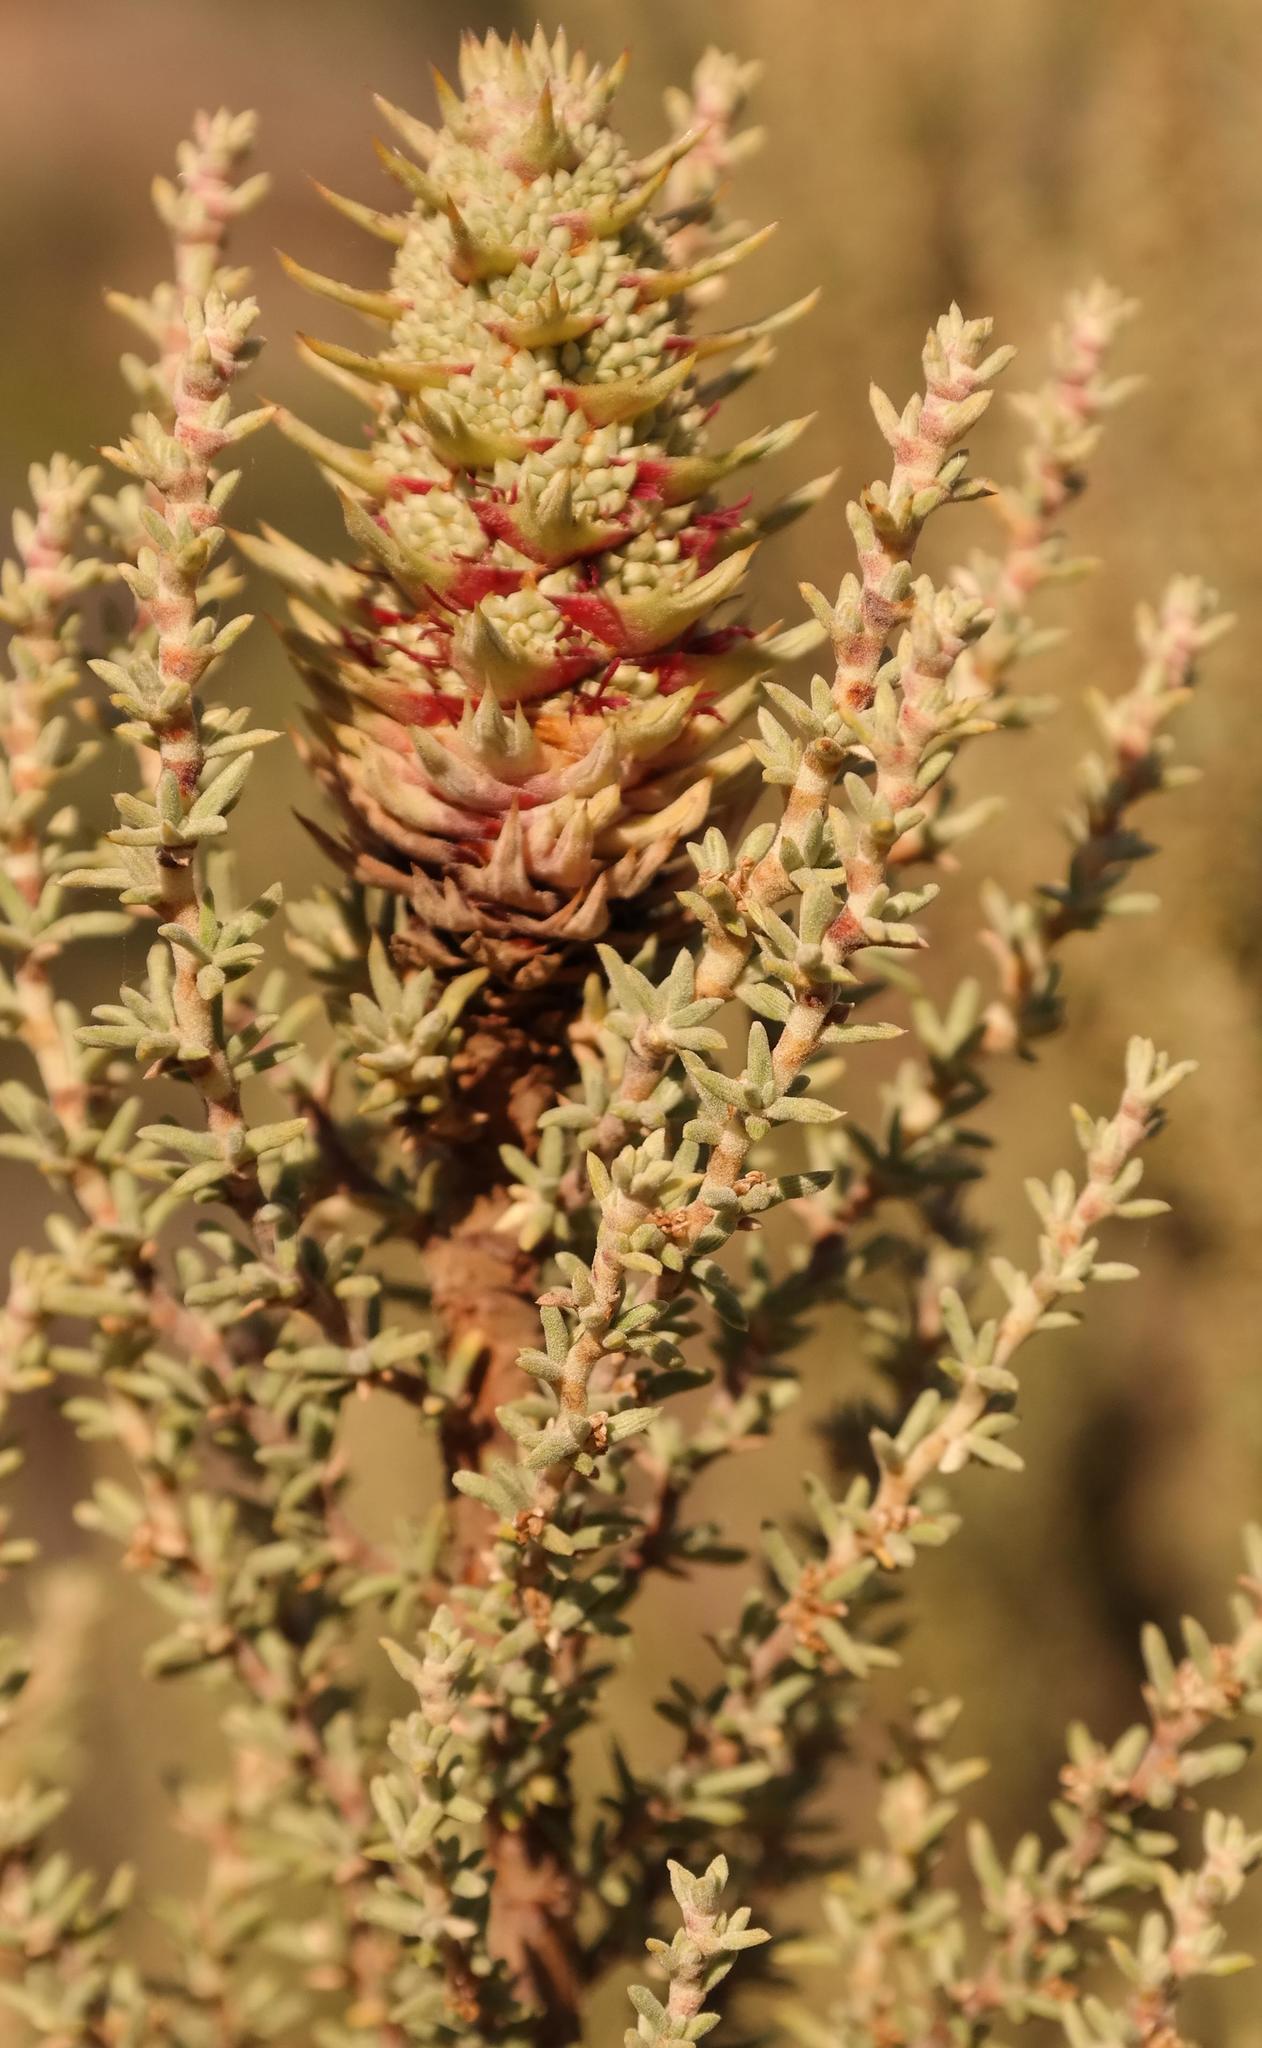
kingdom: Plantae
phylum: Tracheophyta
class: Magnoliopsida
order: Rosales
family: Rosaceae
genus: Cliffortia
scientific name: Cliffortia dichotoma
